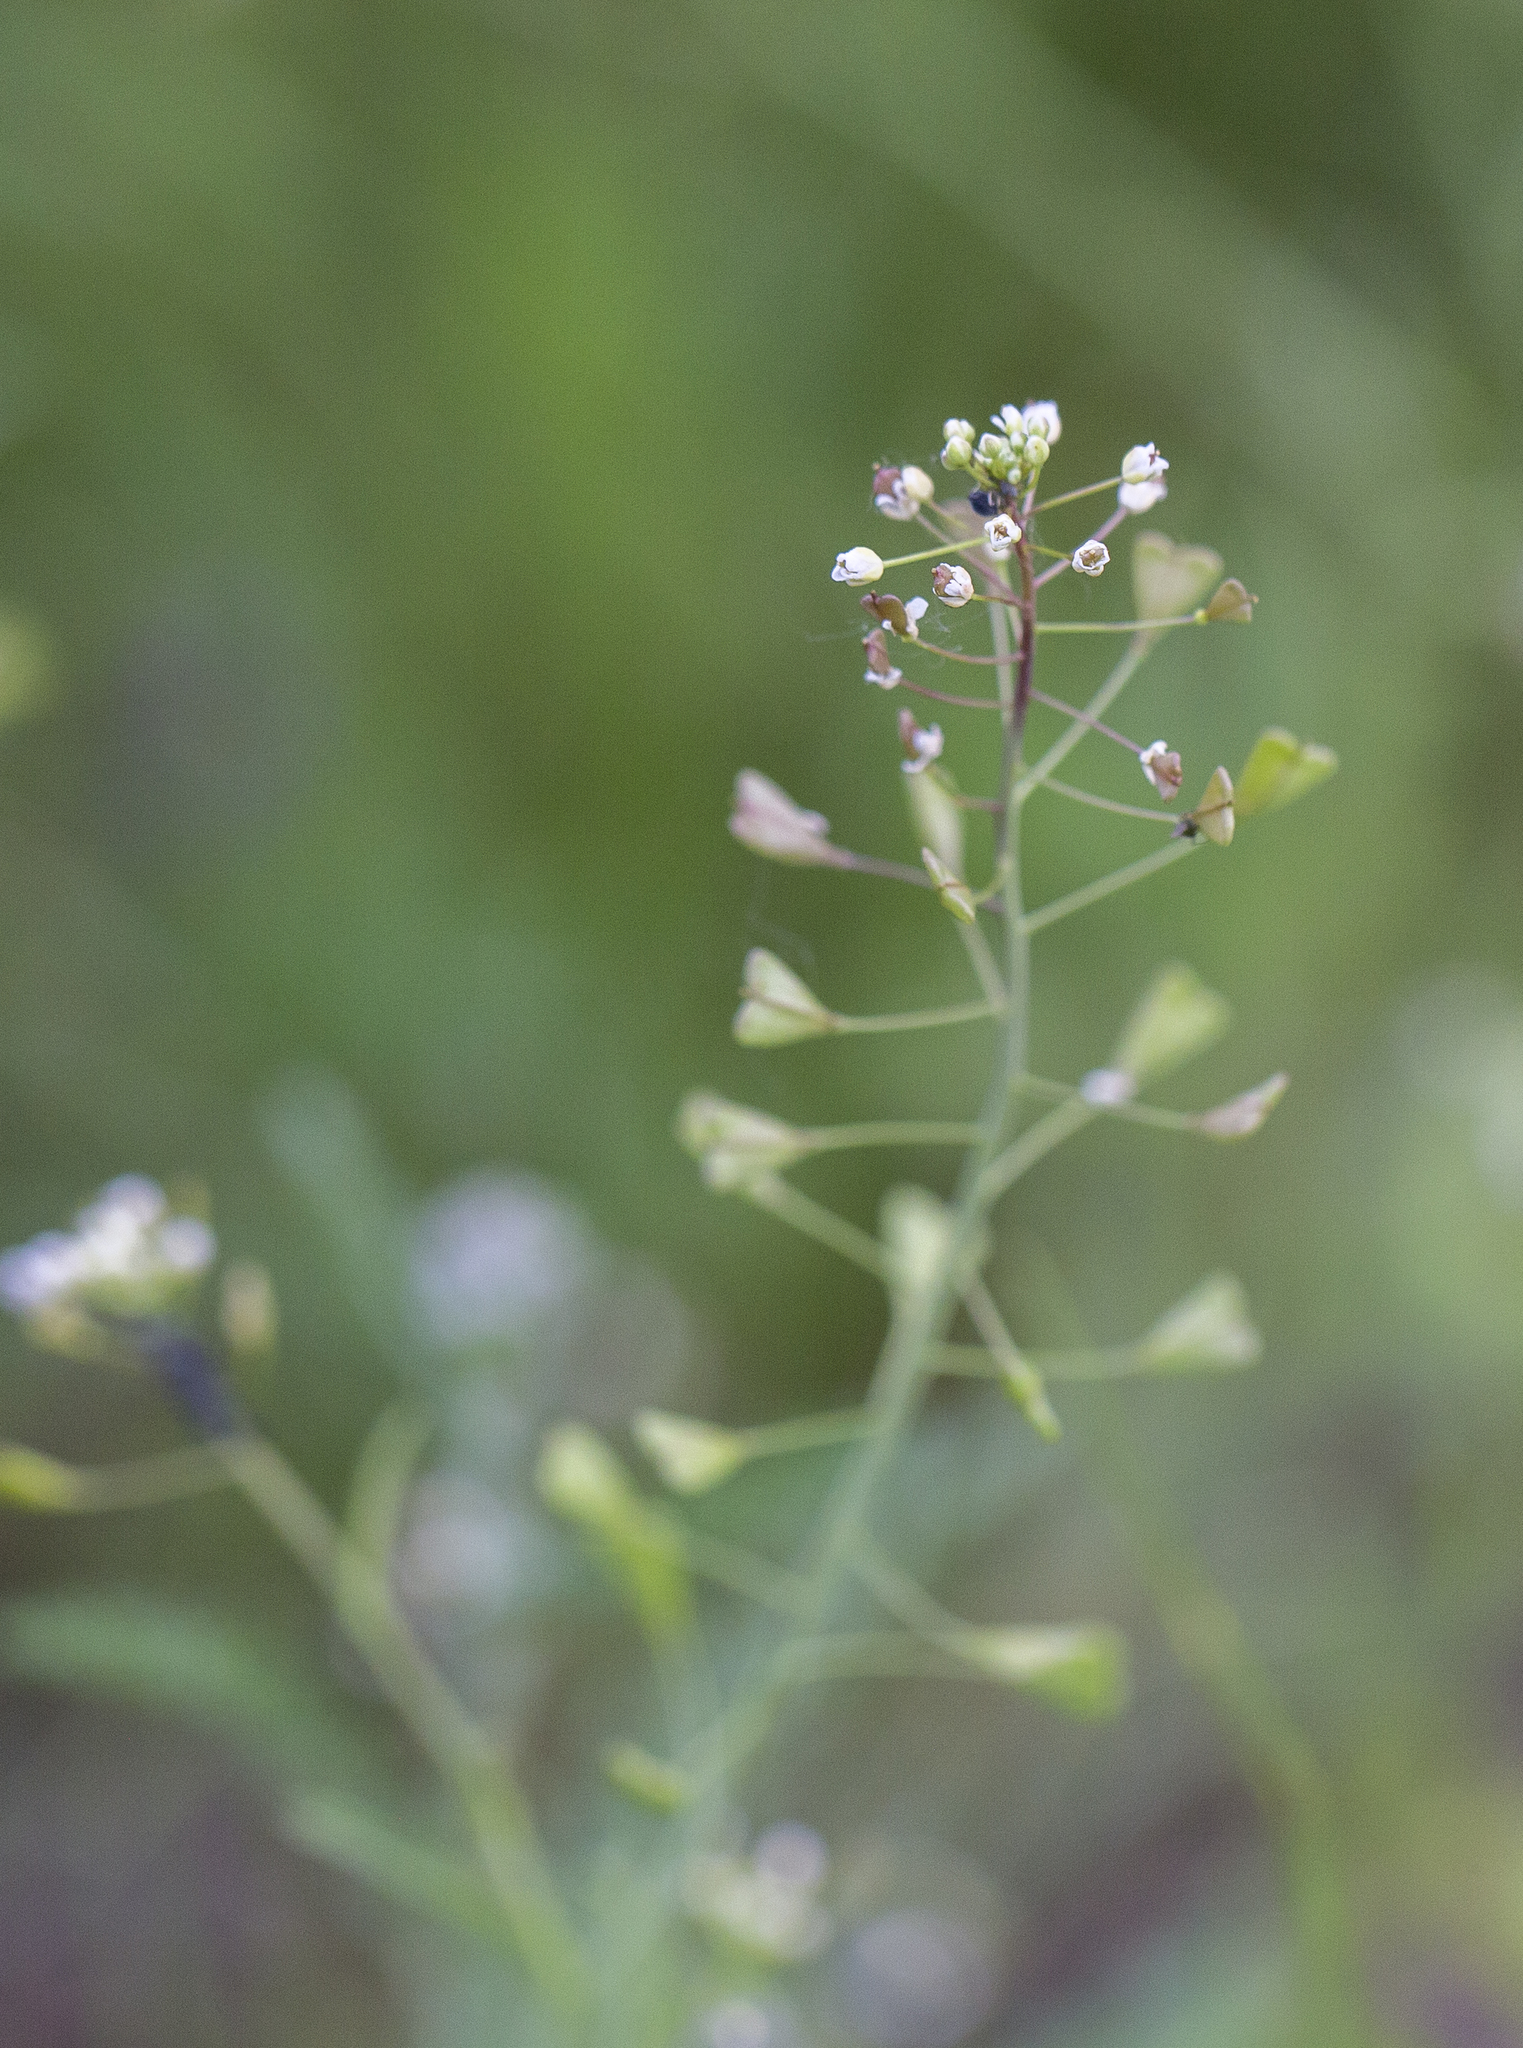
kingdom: Plantae
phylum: Tracheophyta
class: Magnoliopsida
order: Brassicales
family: Brassicaceae
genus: Capsella
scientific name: Capsella bursa-pastoris
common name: Shepherd's purse
